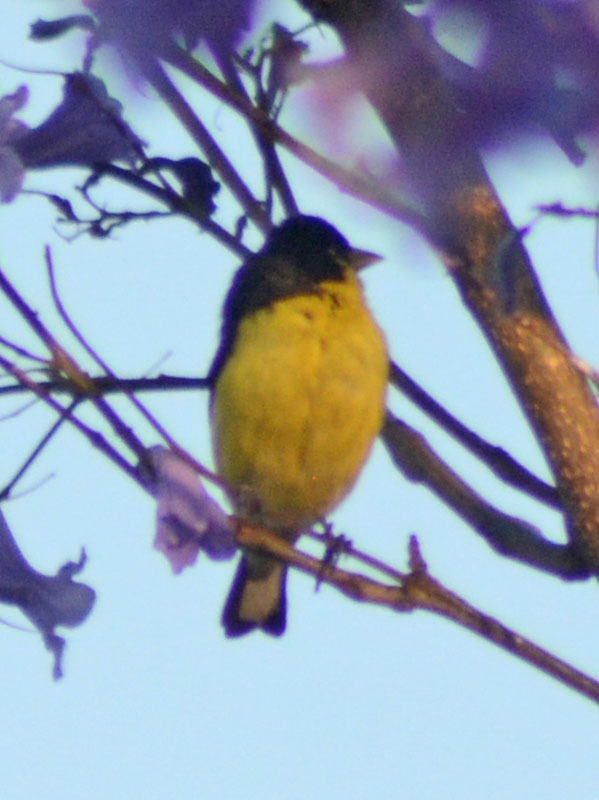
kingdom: Animalia
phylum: Chordata
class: Aves
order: Passeriformes
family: Fringillidae
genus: Spinus
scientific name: Spinus psaltria
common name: Lesser goldfinch
